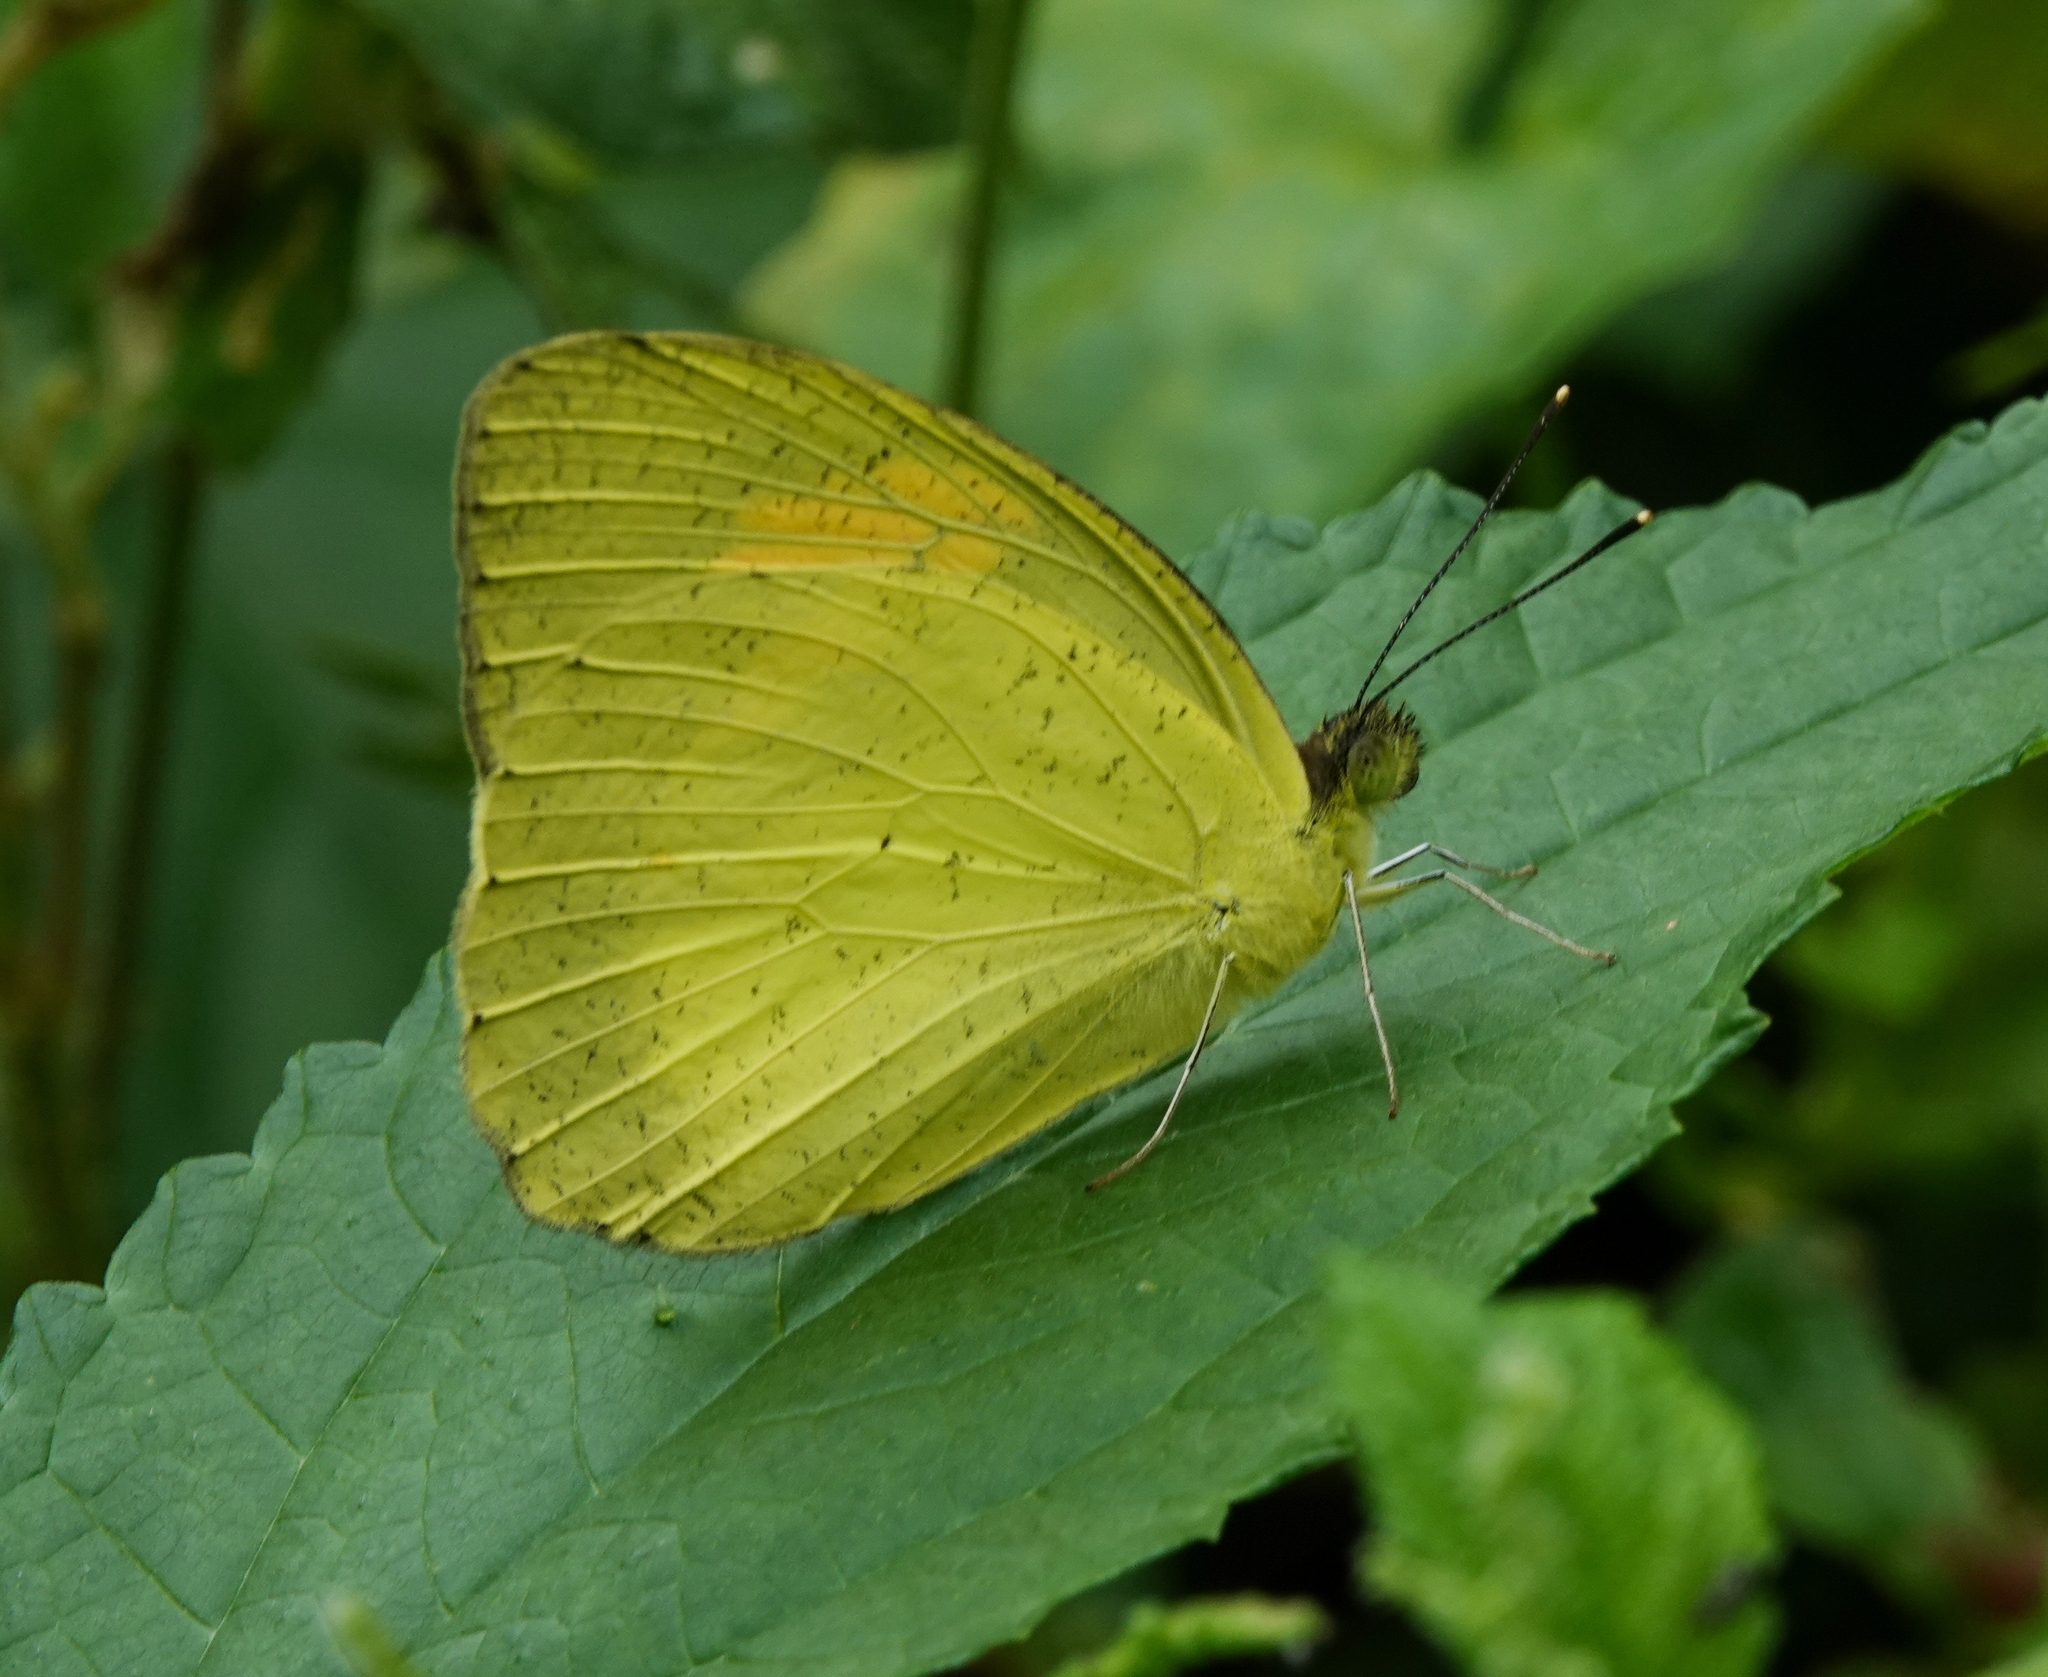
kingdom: Animalia
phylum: Arthropoda
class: Insecta
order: Lepidoptera
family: Pieridae
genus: Ixias
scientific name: Ixias pyrene
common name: Yellow orange tip
